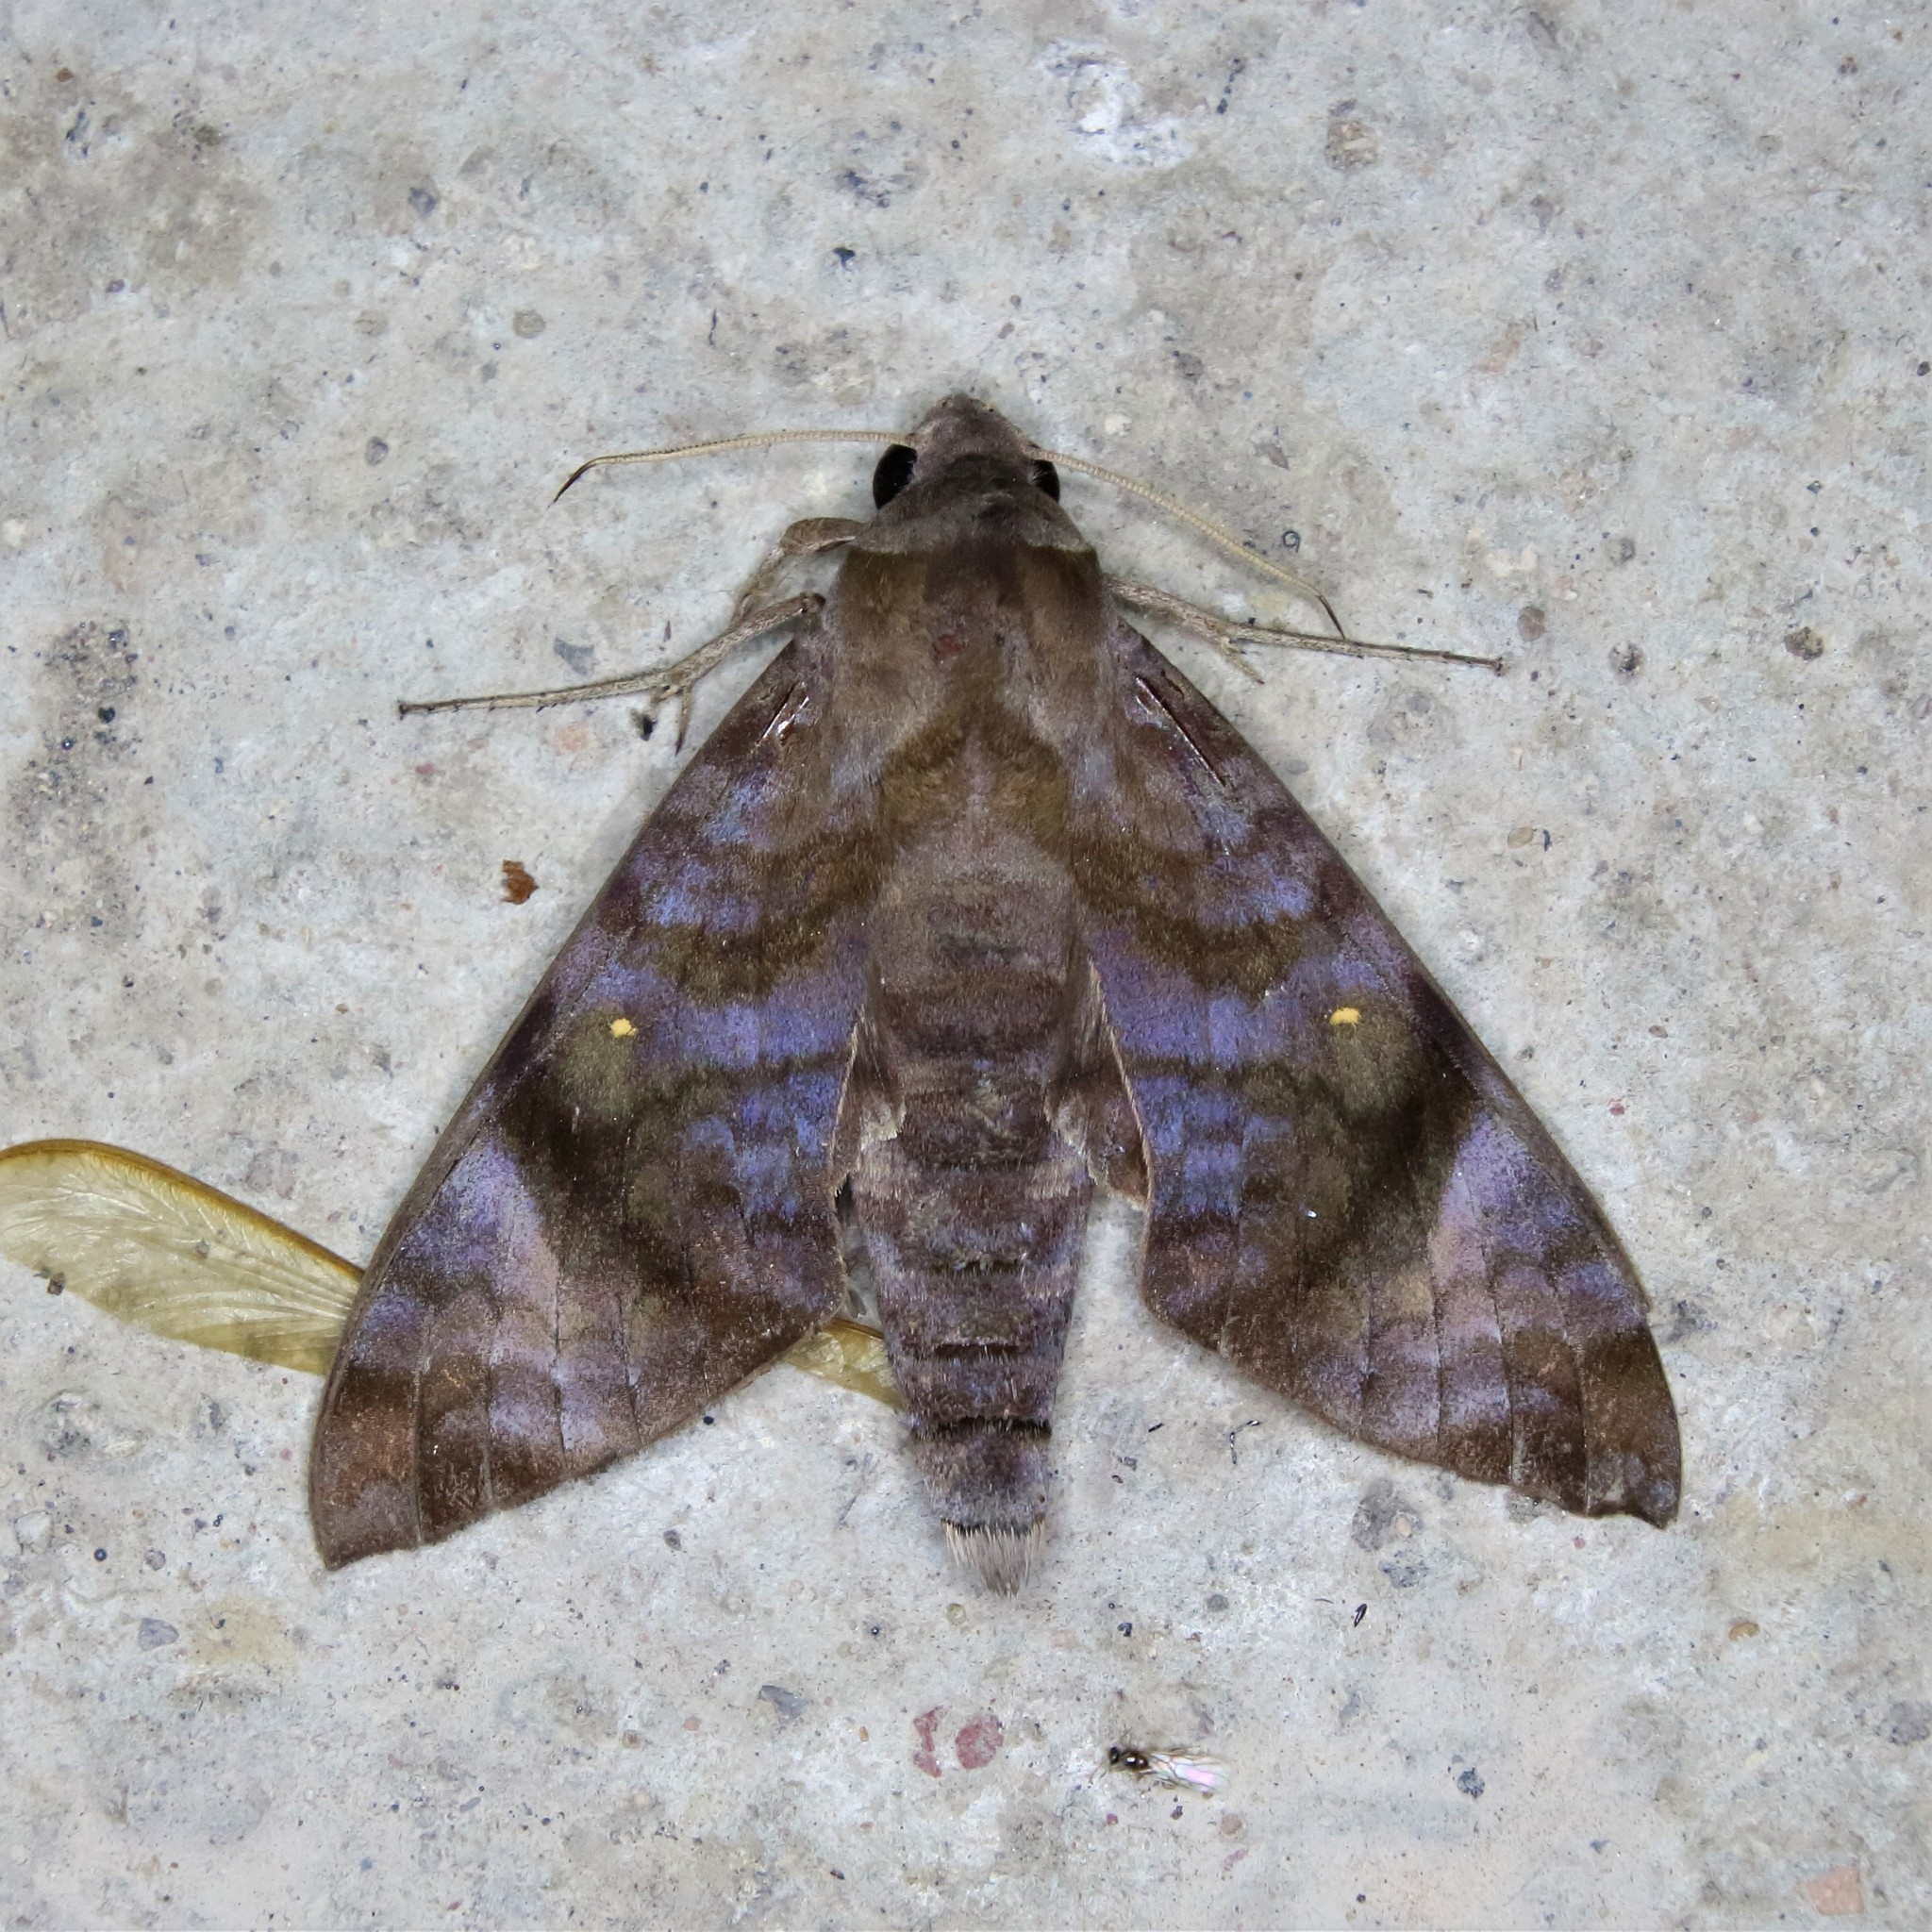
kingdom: Animalia
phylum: Arthropoda
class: Insecta
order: Lepidoptera
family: Sphingidae
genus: Acosmeryx
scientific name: Acosmeryx pseudonaga
